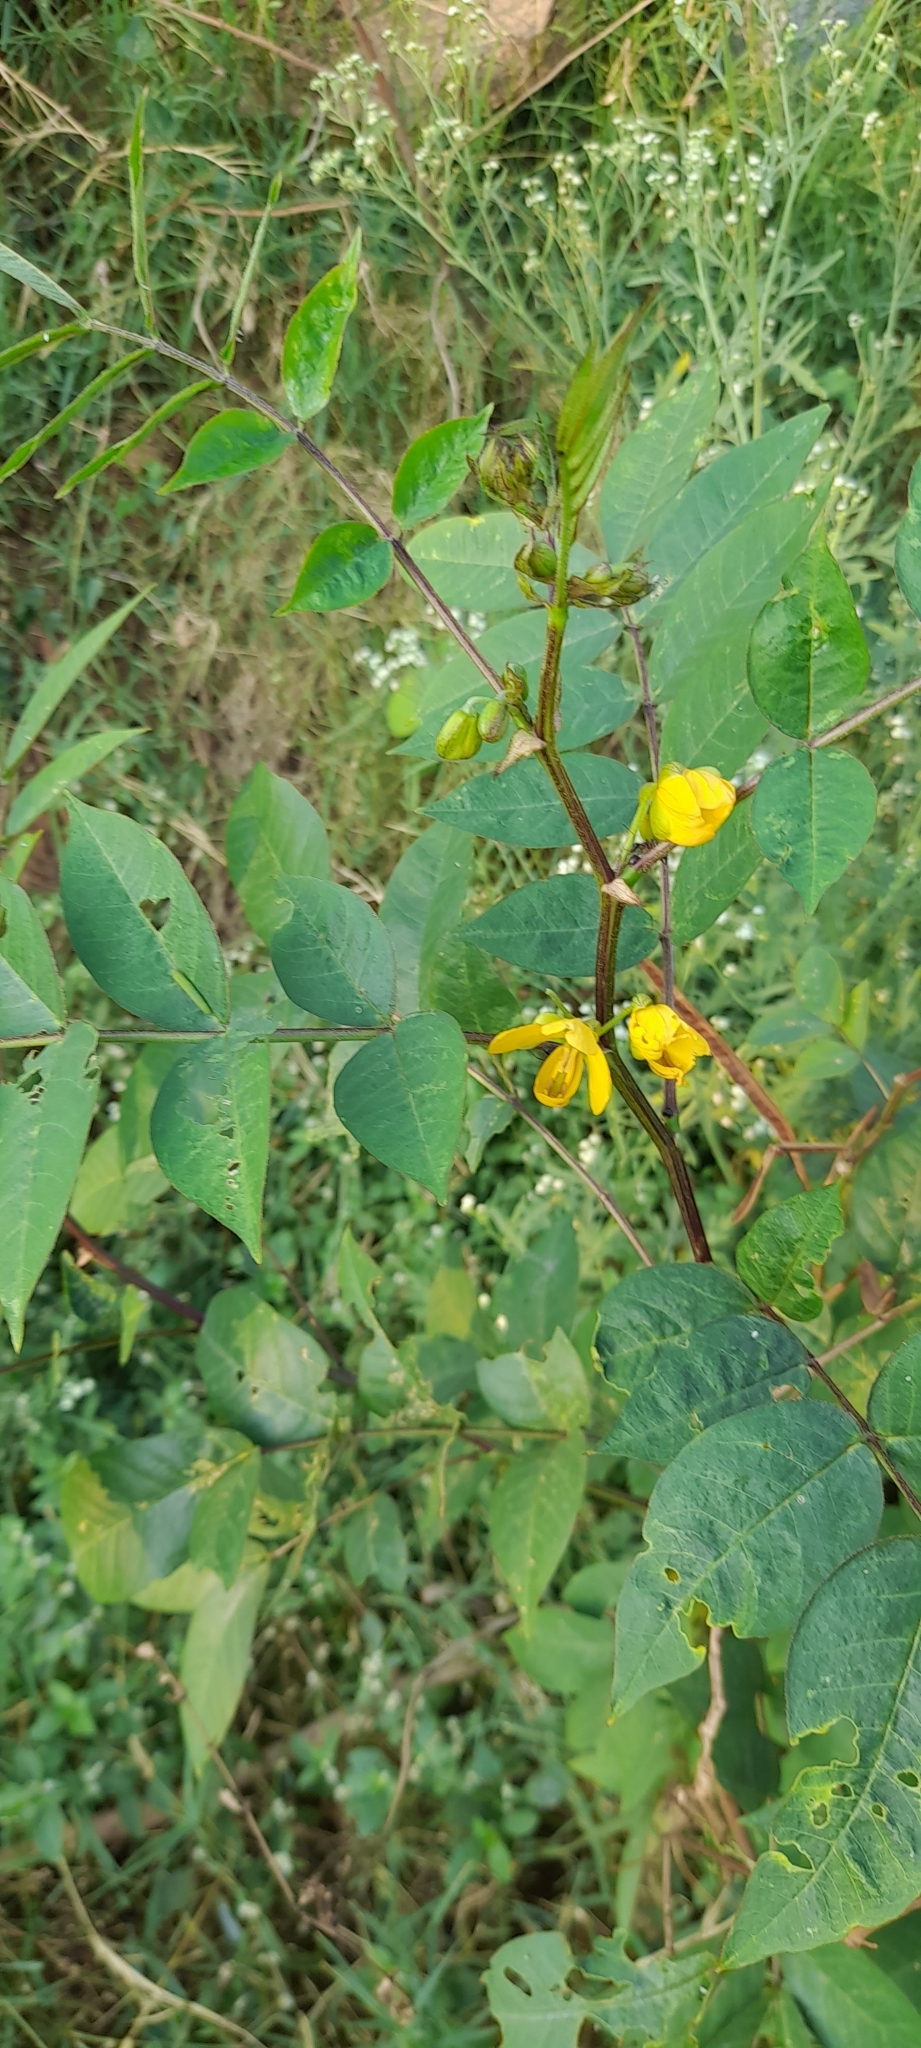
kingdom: Plantae
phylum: Tracheophyta
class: Magnoliopsida
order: Fabales
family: Fabaceae
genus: Senna
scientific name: Senna occidentalis
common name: Septicweed
